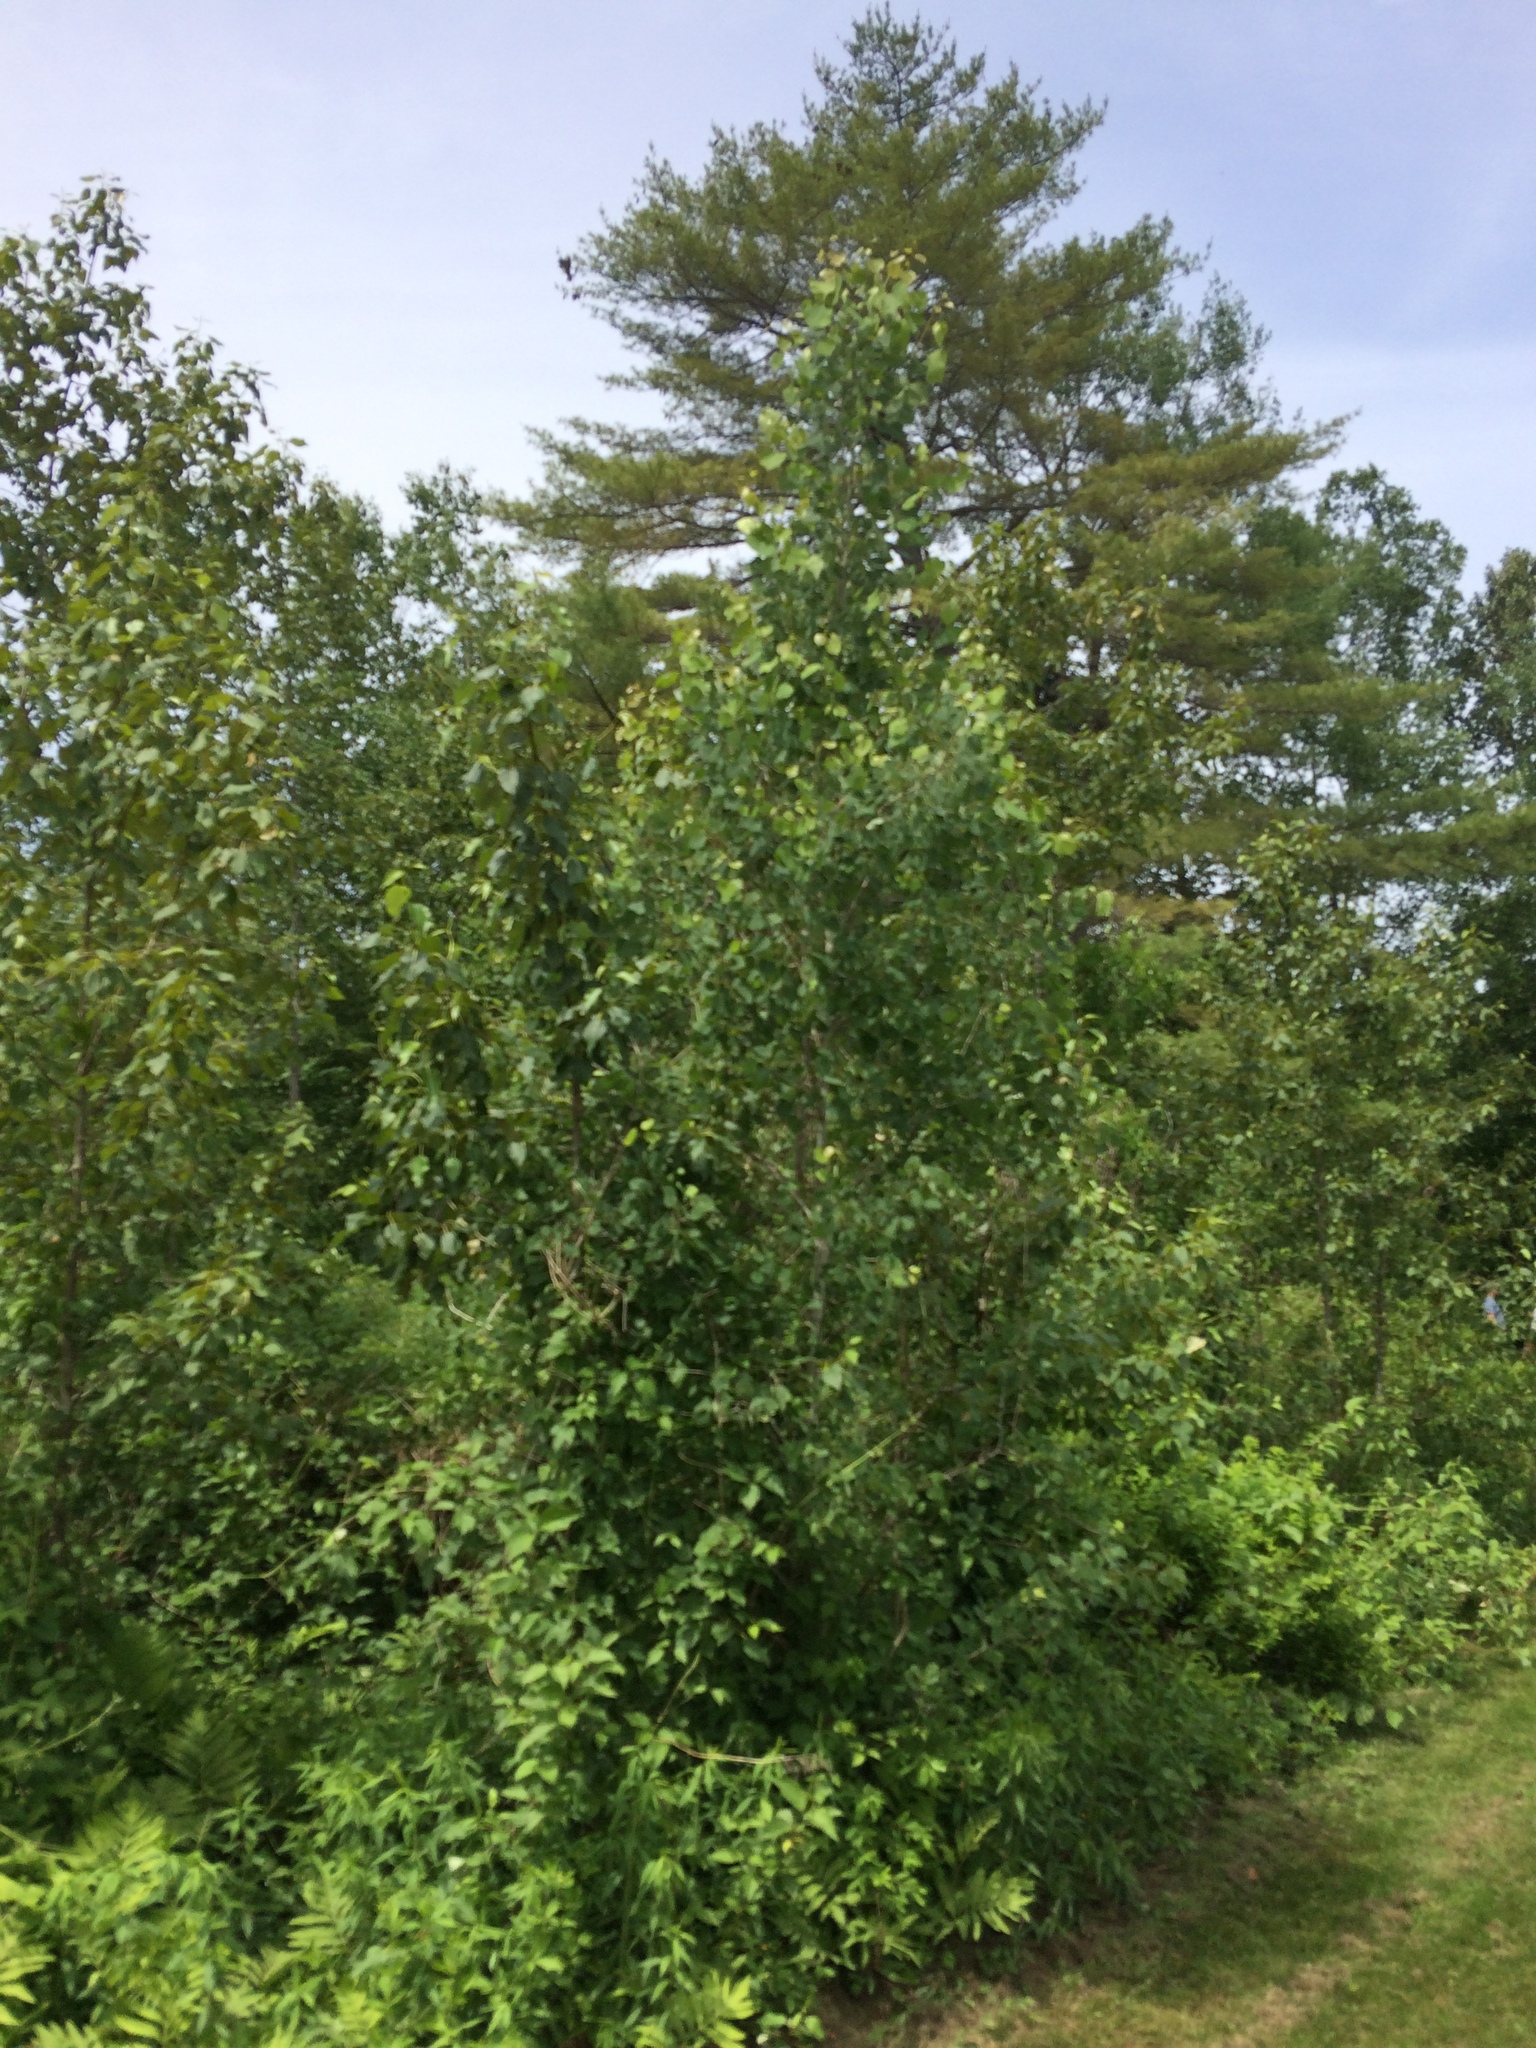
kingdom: Plantae
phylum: Tracheophyta
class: Magnoliopsida
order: Malpighiales
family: Salicaceae
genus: Populus
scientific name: Populus tremuloides
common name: Quaking aspen
